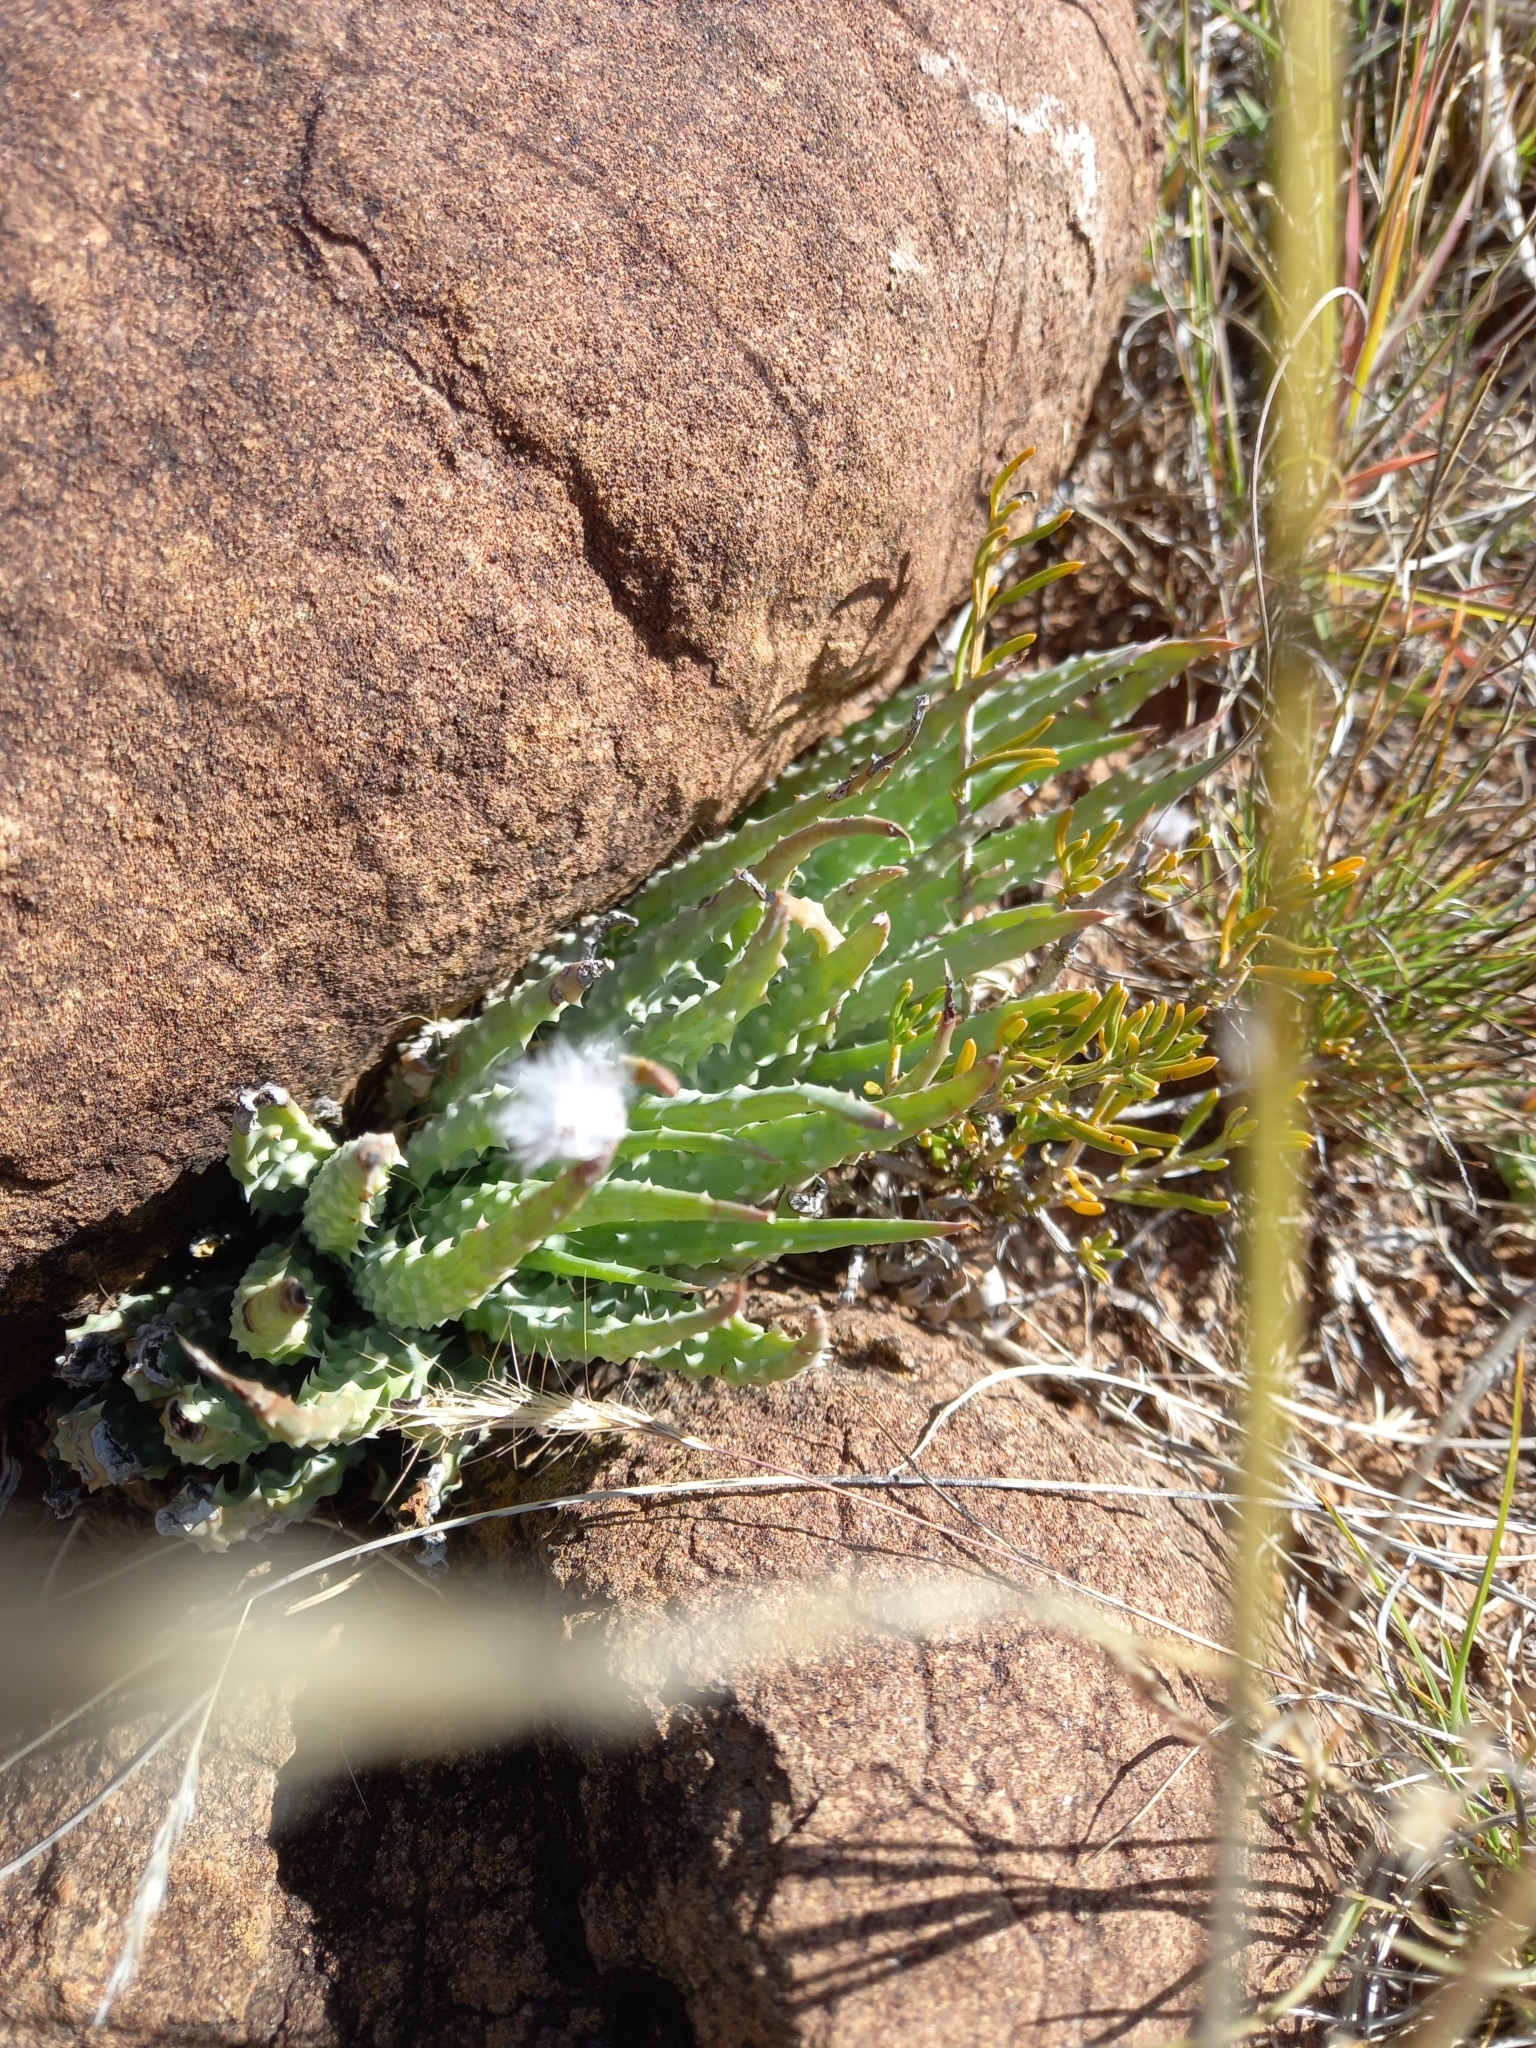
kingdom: Plantae
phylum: Tracheophyta
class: Liliopsida
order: Asparagales
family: Asphodelaceae
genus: Aloe
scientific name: Aloe humilis
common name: Dwarf hedgehog aloe
